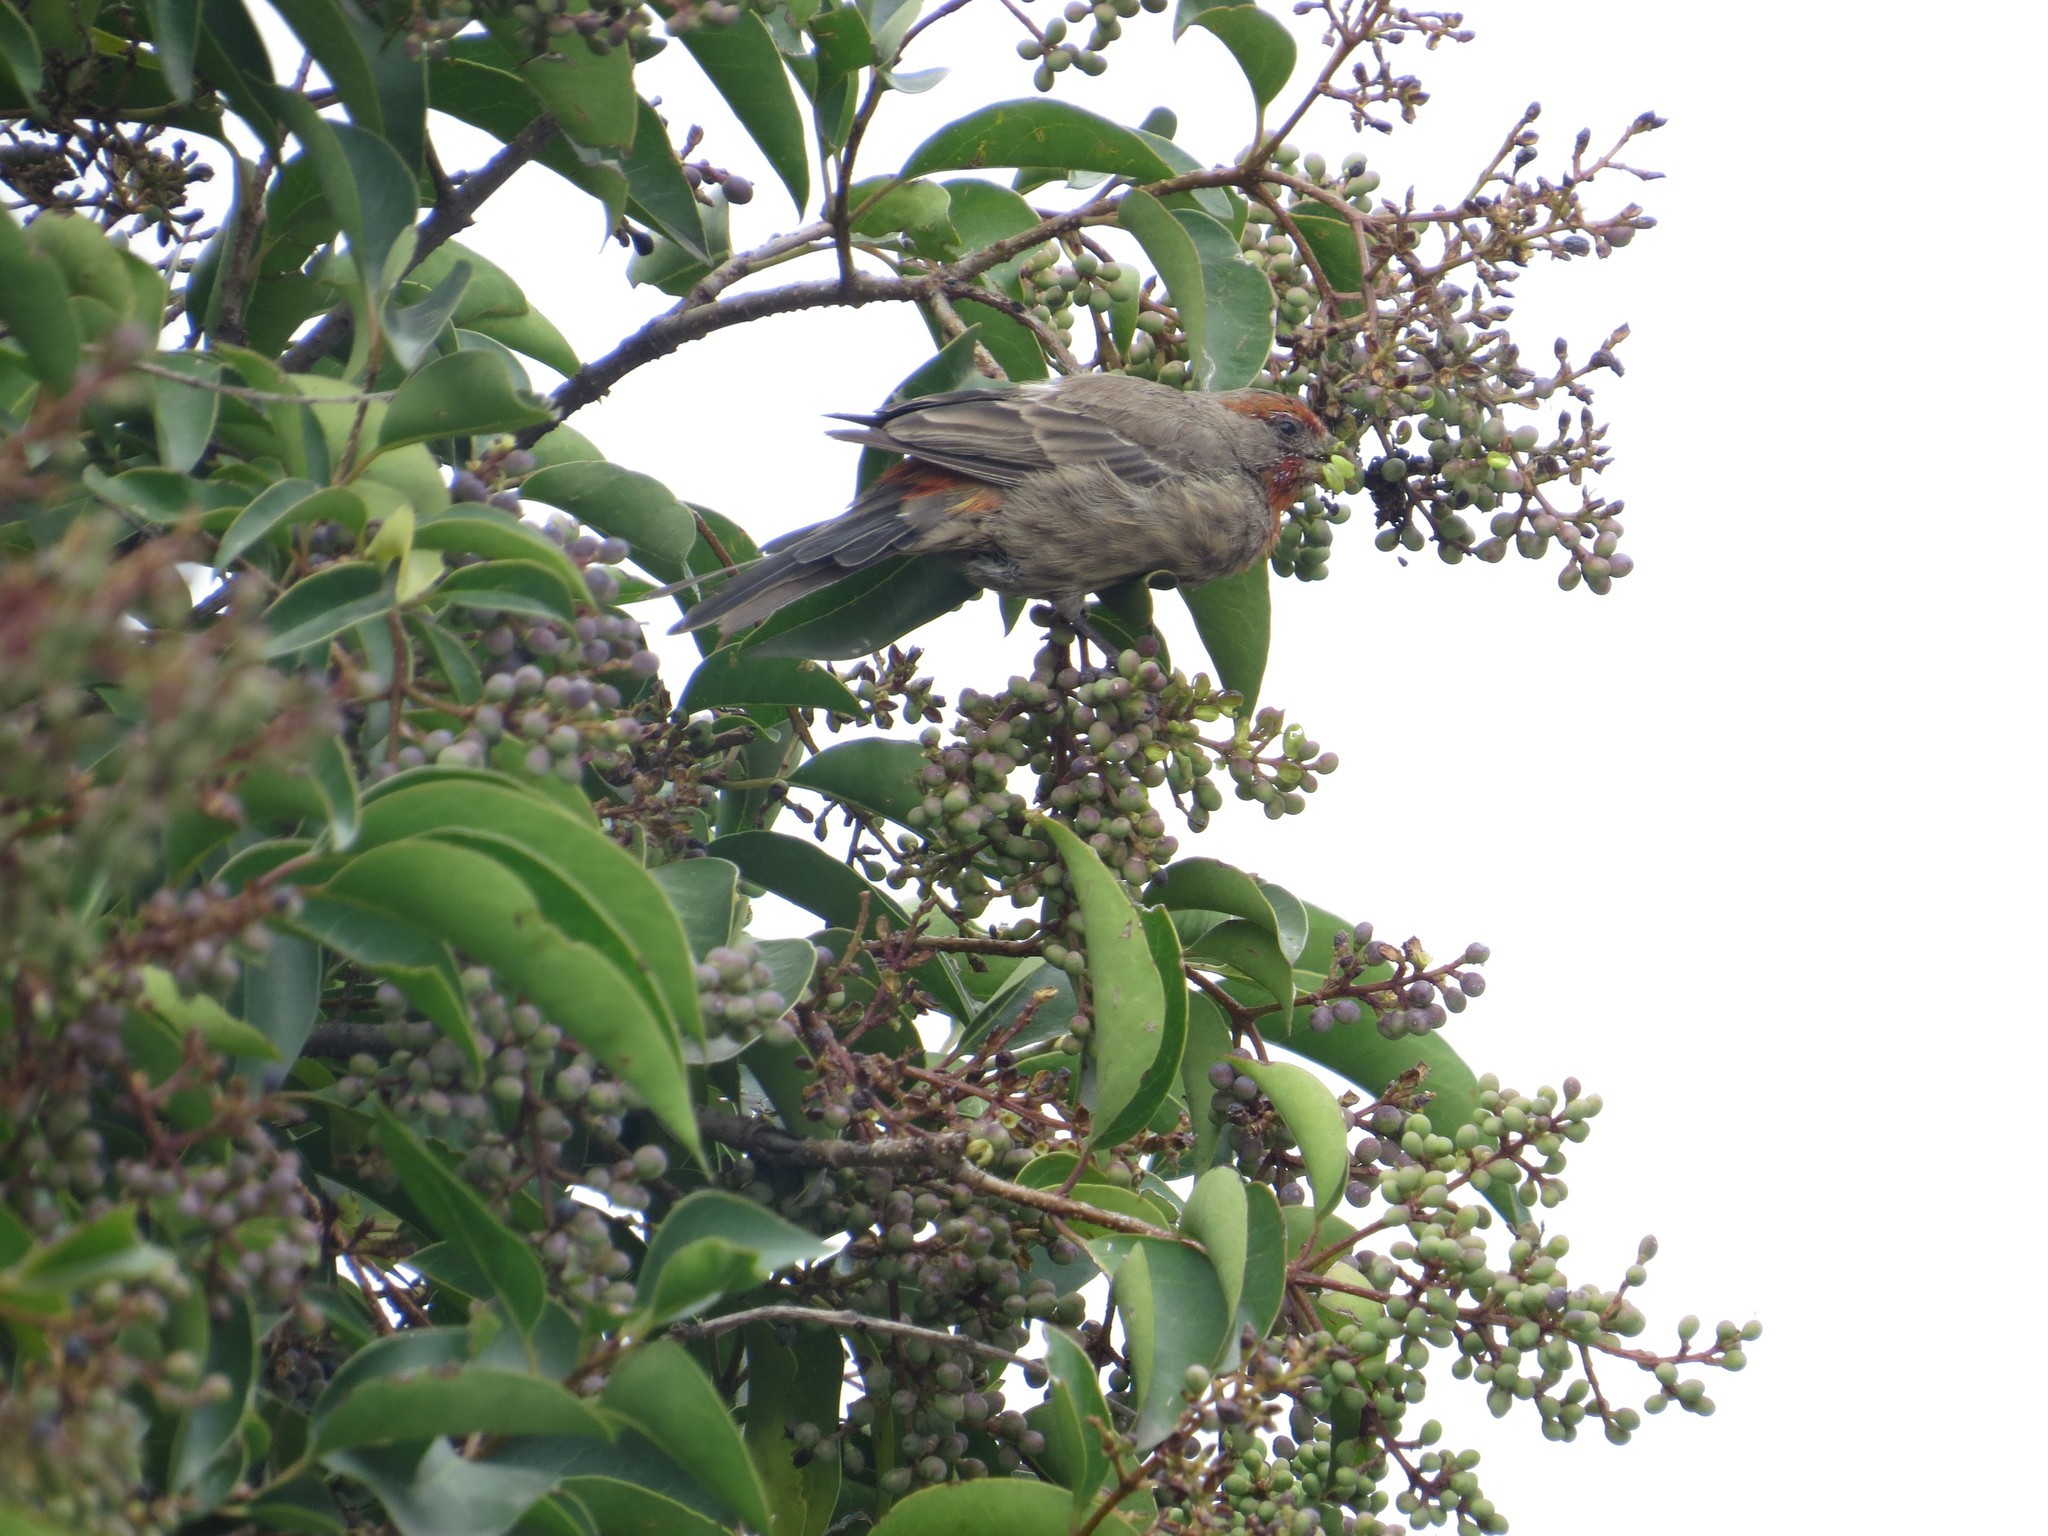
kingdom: Animalia
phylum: Chordata
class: Aves
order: Passeriformes
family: Fringillidae
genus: Haemorhous
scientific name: Haemorhous mexicanus
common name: House finch
